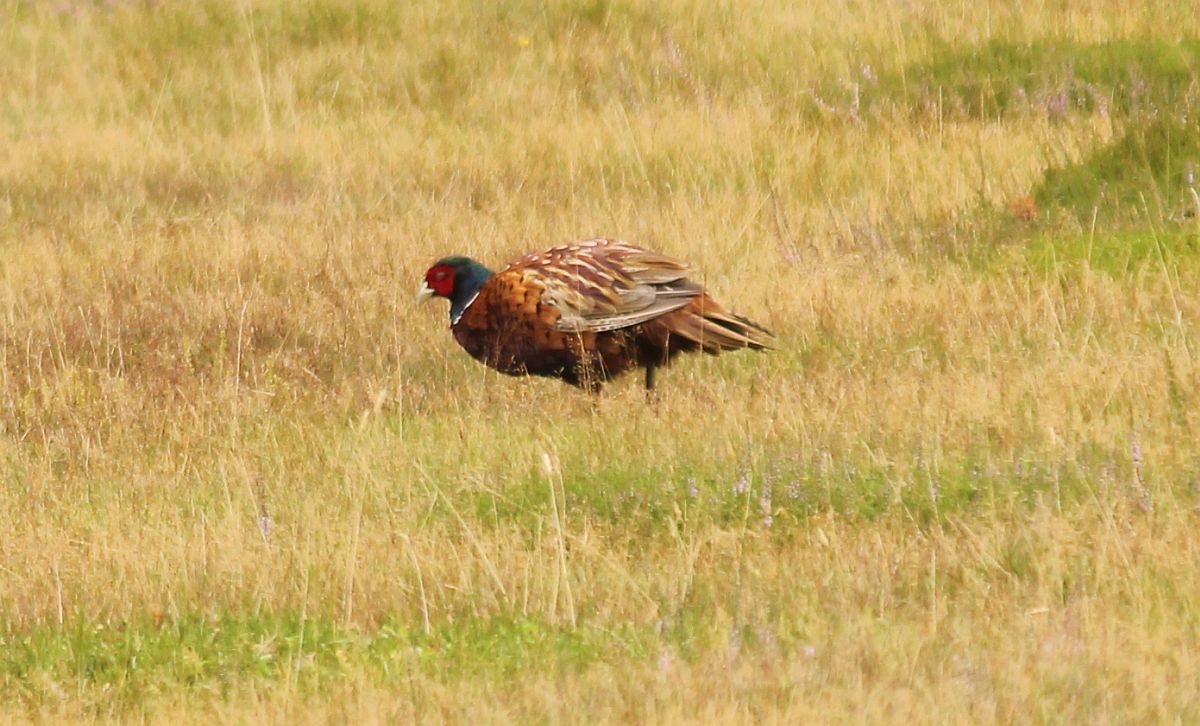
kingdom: Animalia
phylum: Chordata
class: Aves
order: Galliformes
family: Phasianidae
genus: Phasianus
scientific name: Phasianus colchicus
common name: Common pheasant
